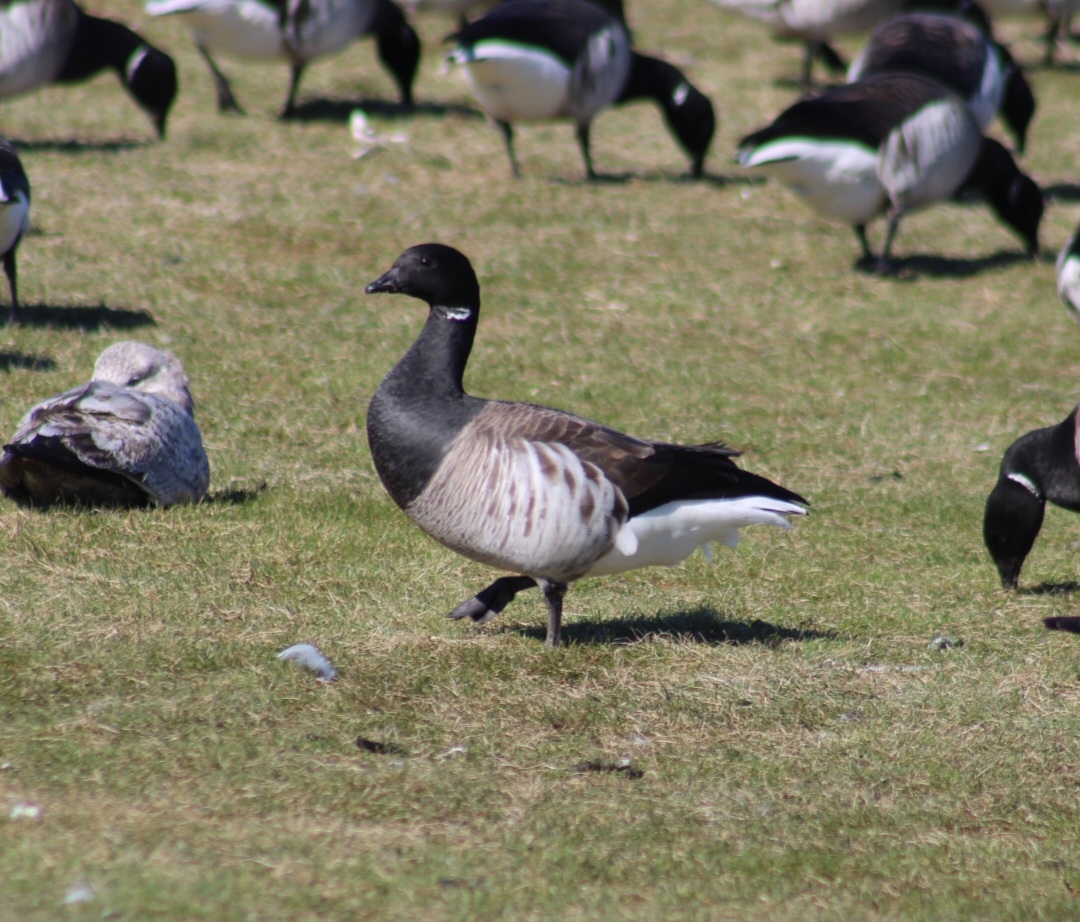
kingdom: Animalia
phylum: Chordata
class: Aves
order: Anseriformes
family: Anatidae
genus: Branta
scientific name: Branta bernicla
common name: Brant goose
